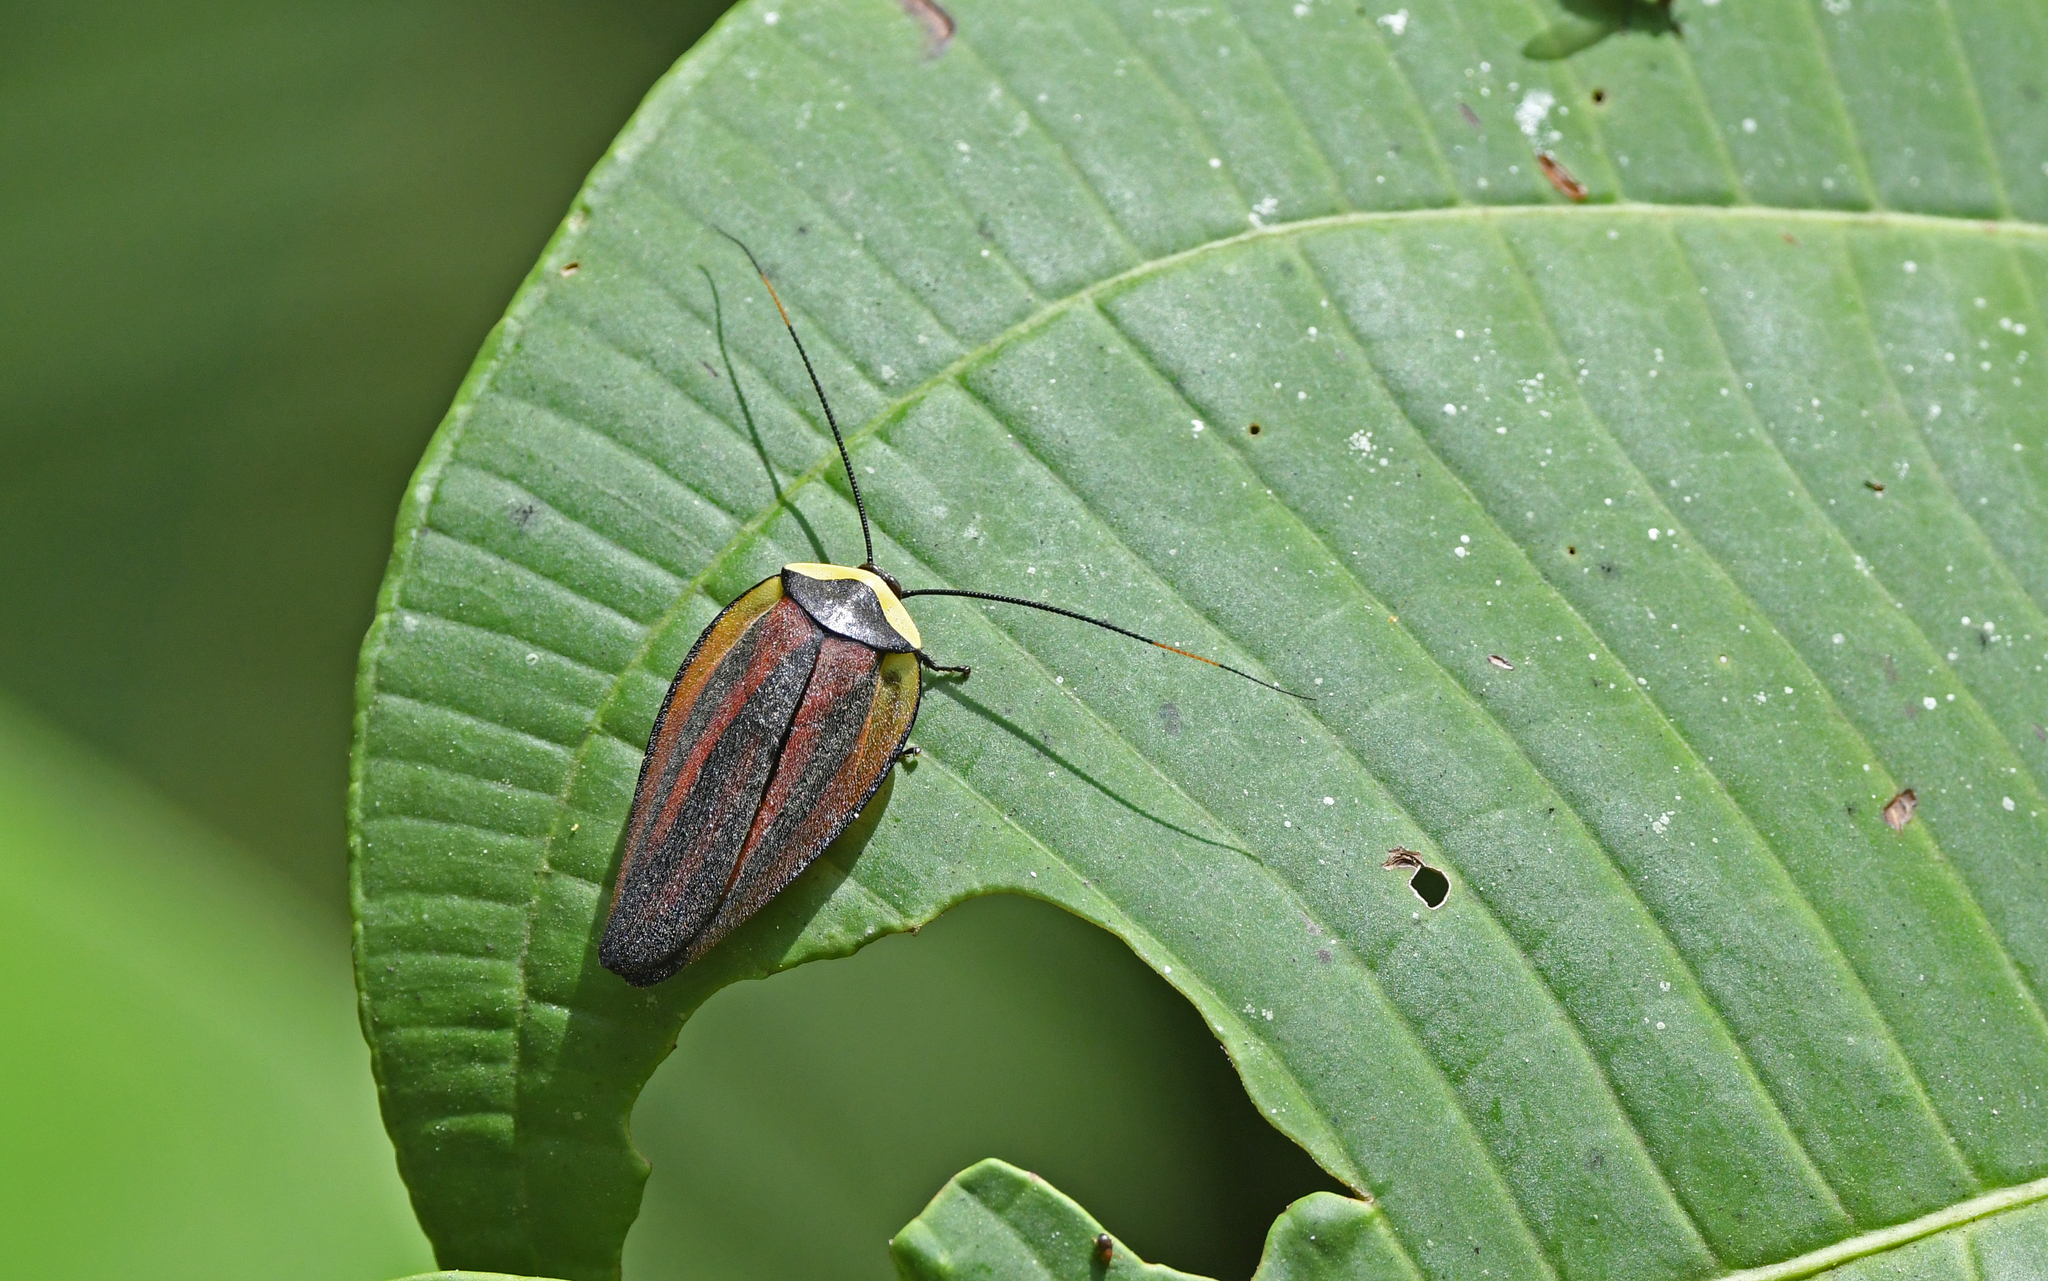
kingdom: Animalia
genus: Rochaina
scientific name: Rochaina peruana
